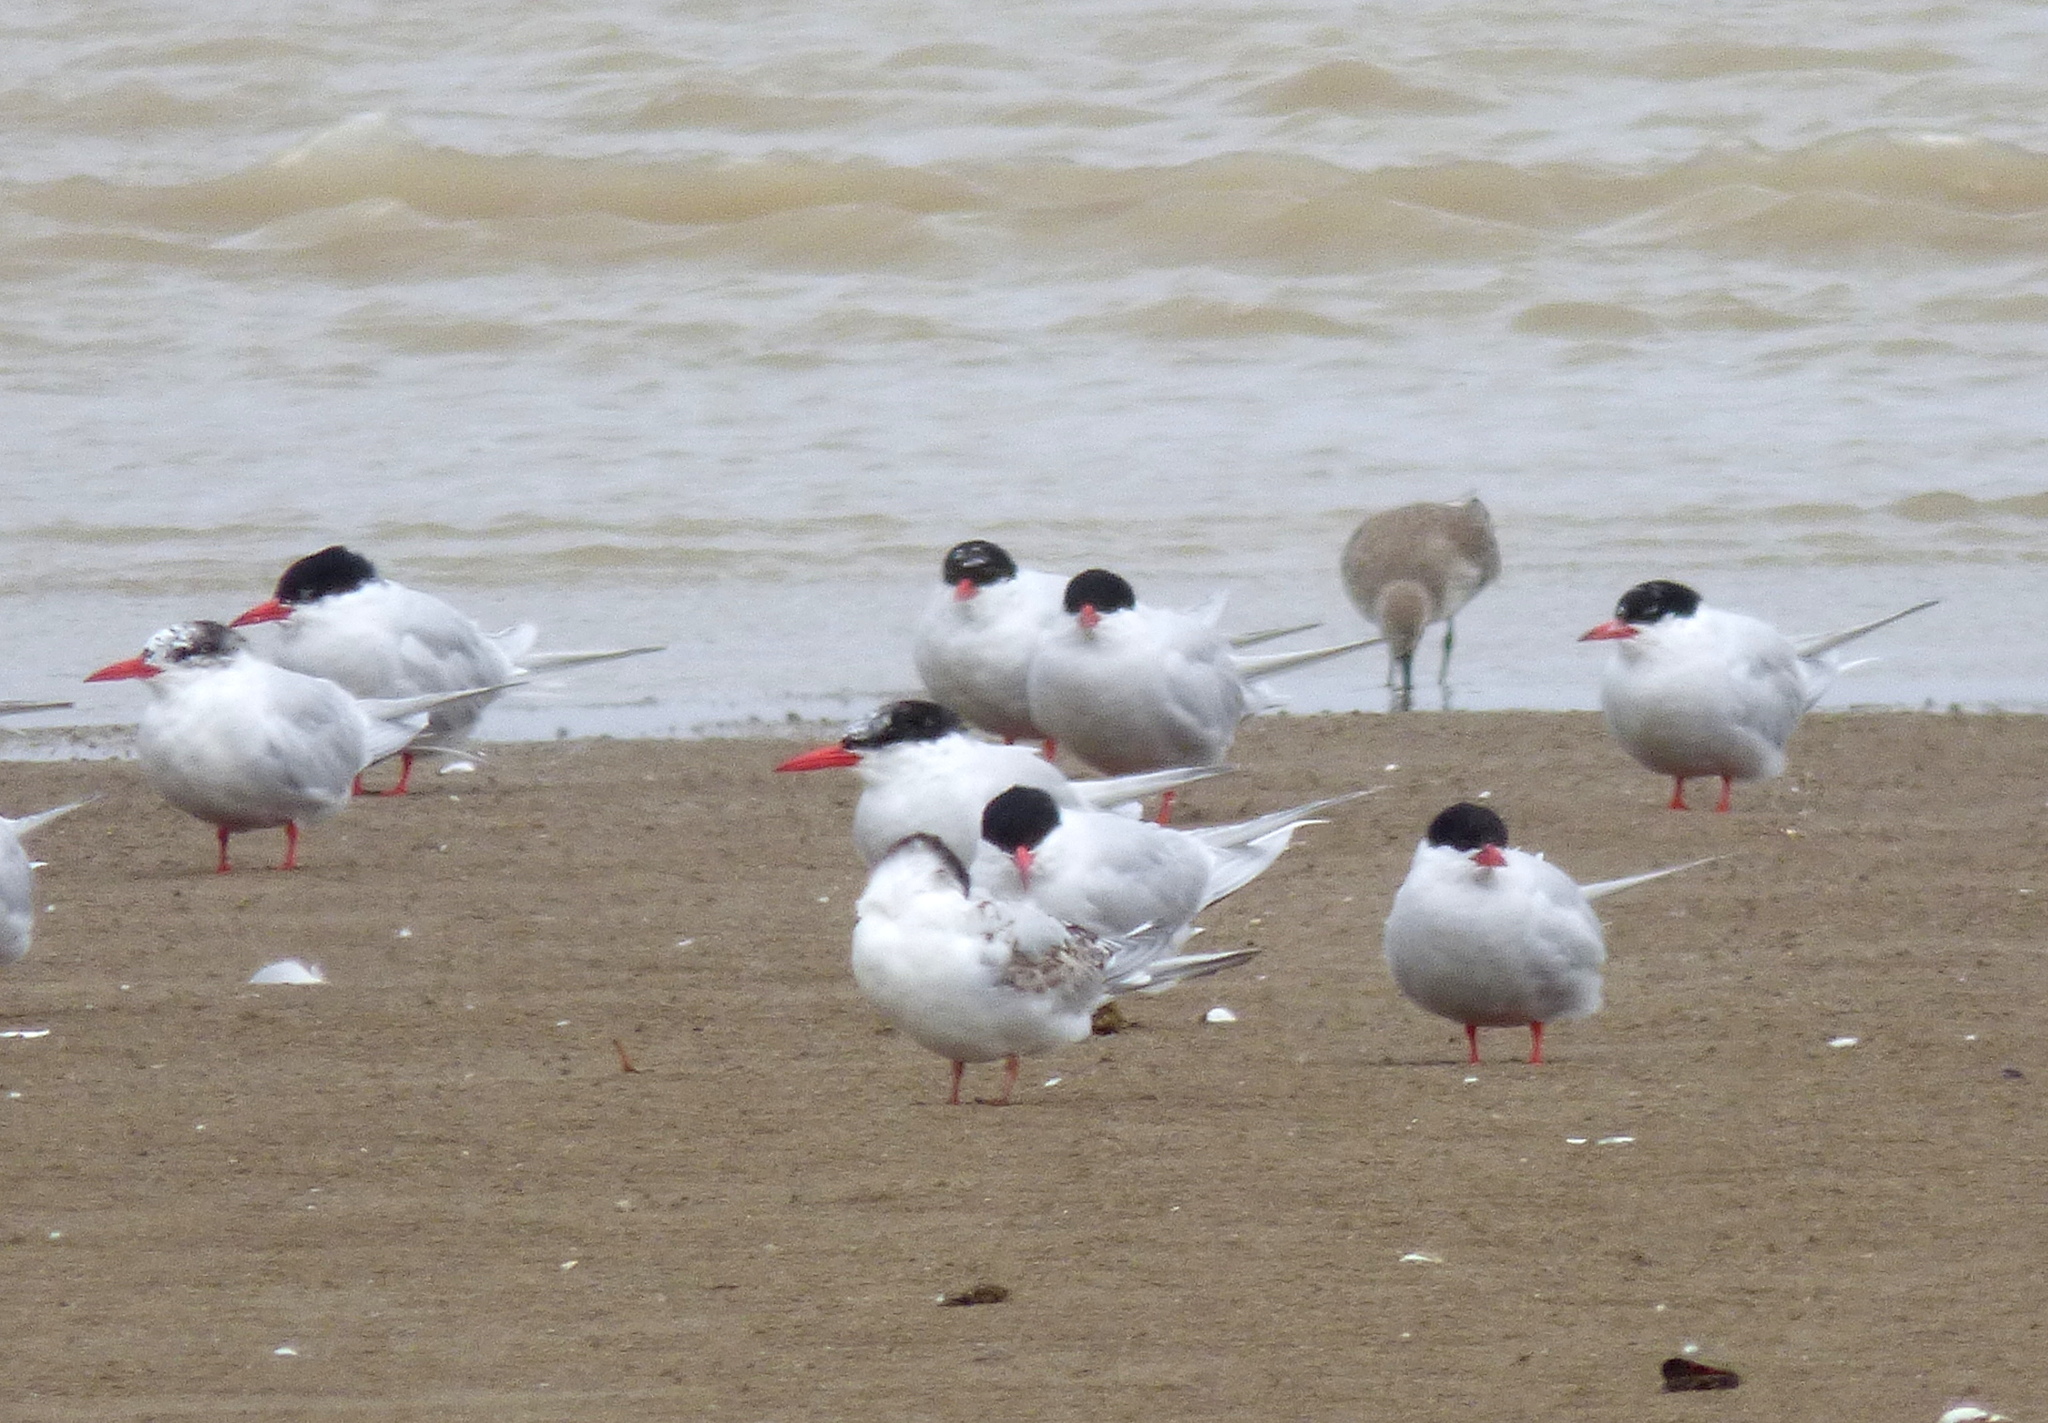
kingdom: Animalia
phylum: Chordata
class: Aves
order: Charadriiformes
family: Laridae
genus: Sterna
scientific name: Sterna hirundinacea
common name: South american tern
